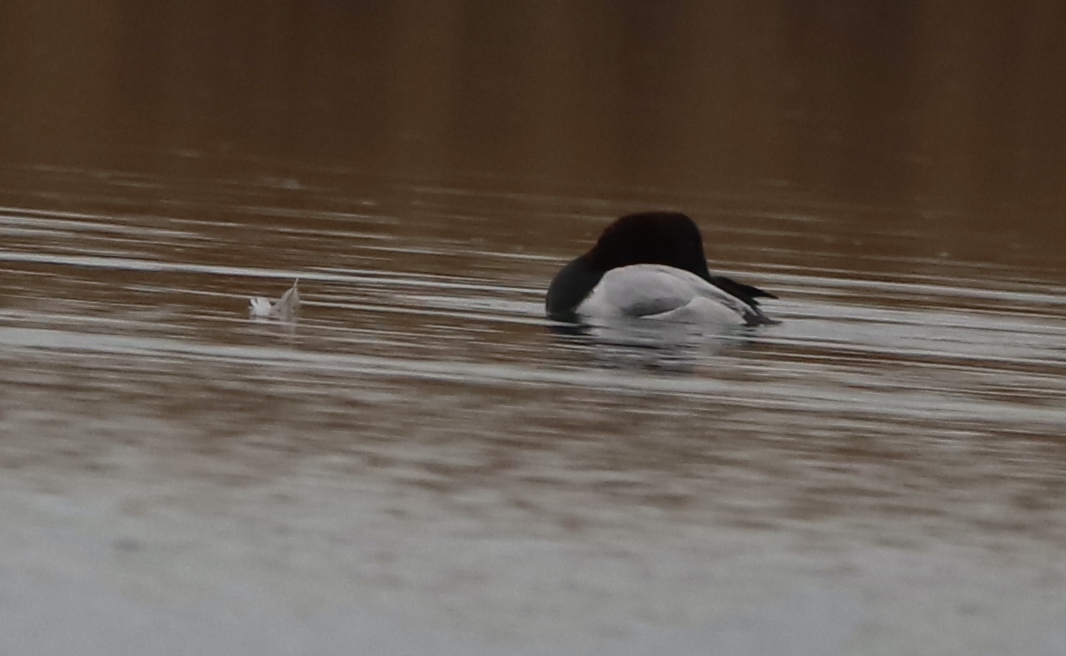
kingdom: Animalia
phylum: Chordata
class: Aves
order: Anseriformes
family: Anatidae
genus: Aythya
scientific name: Aythya valisineria
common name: Canvasback
